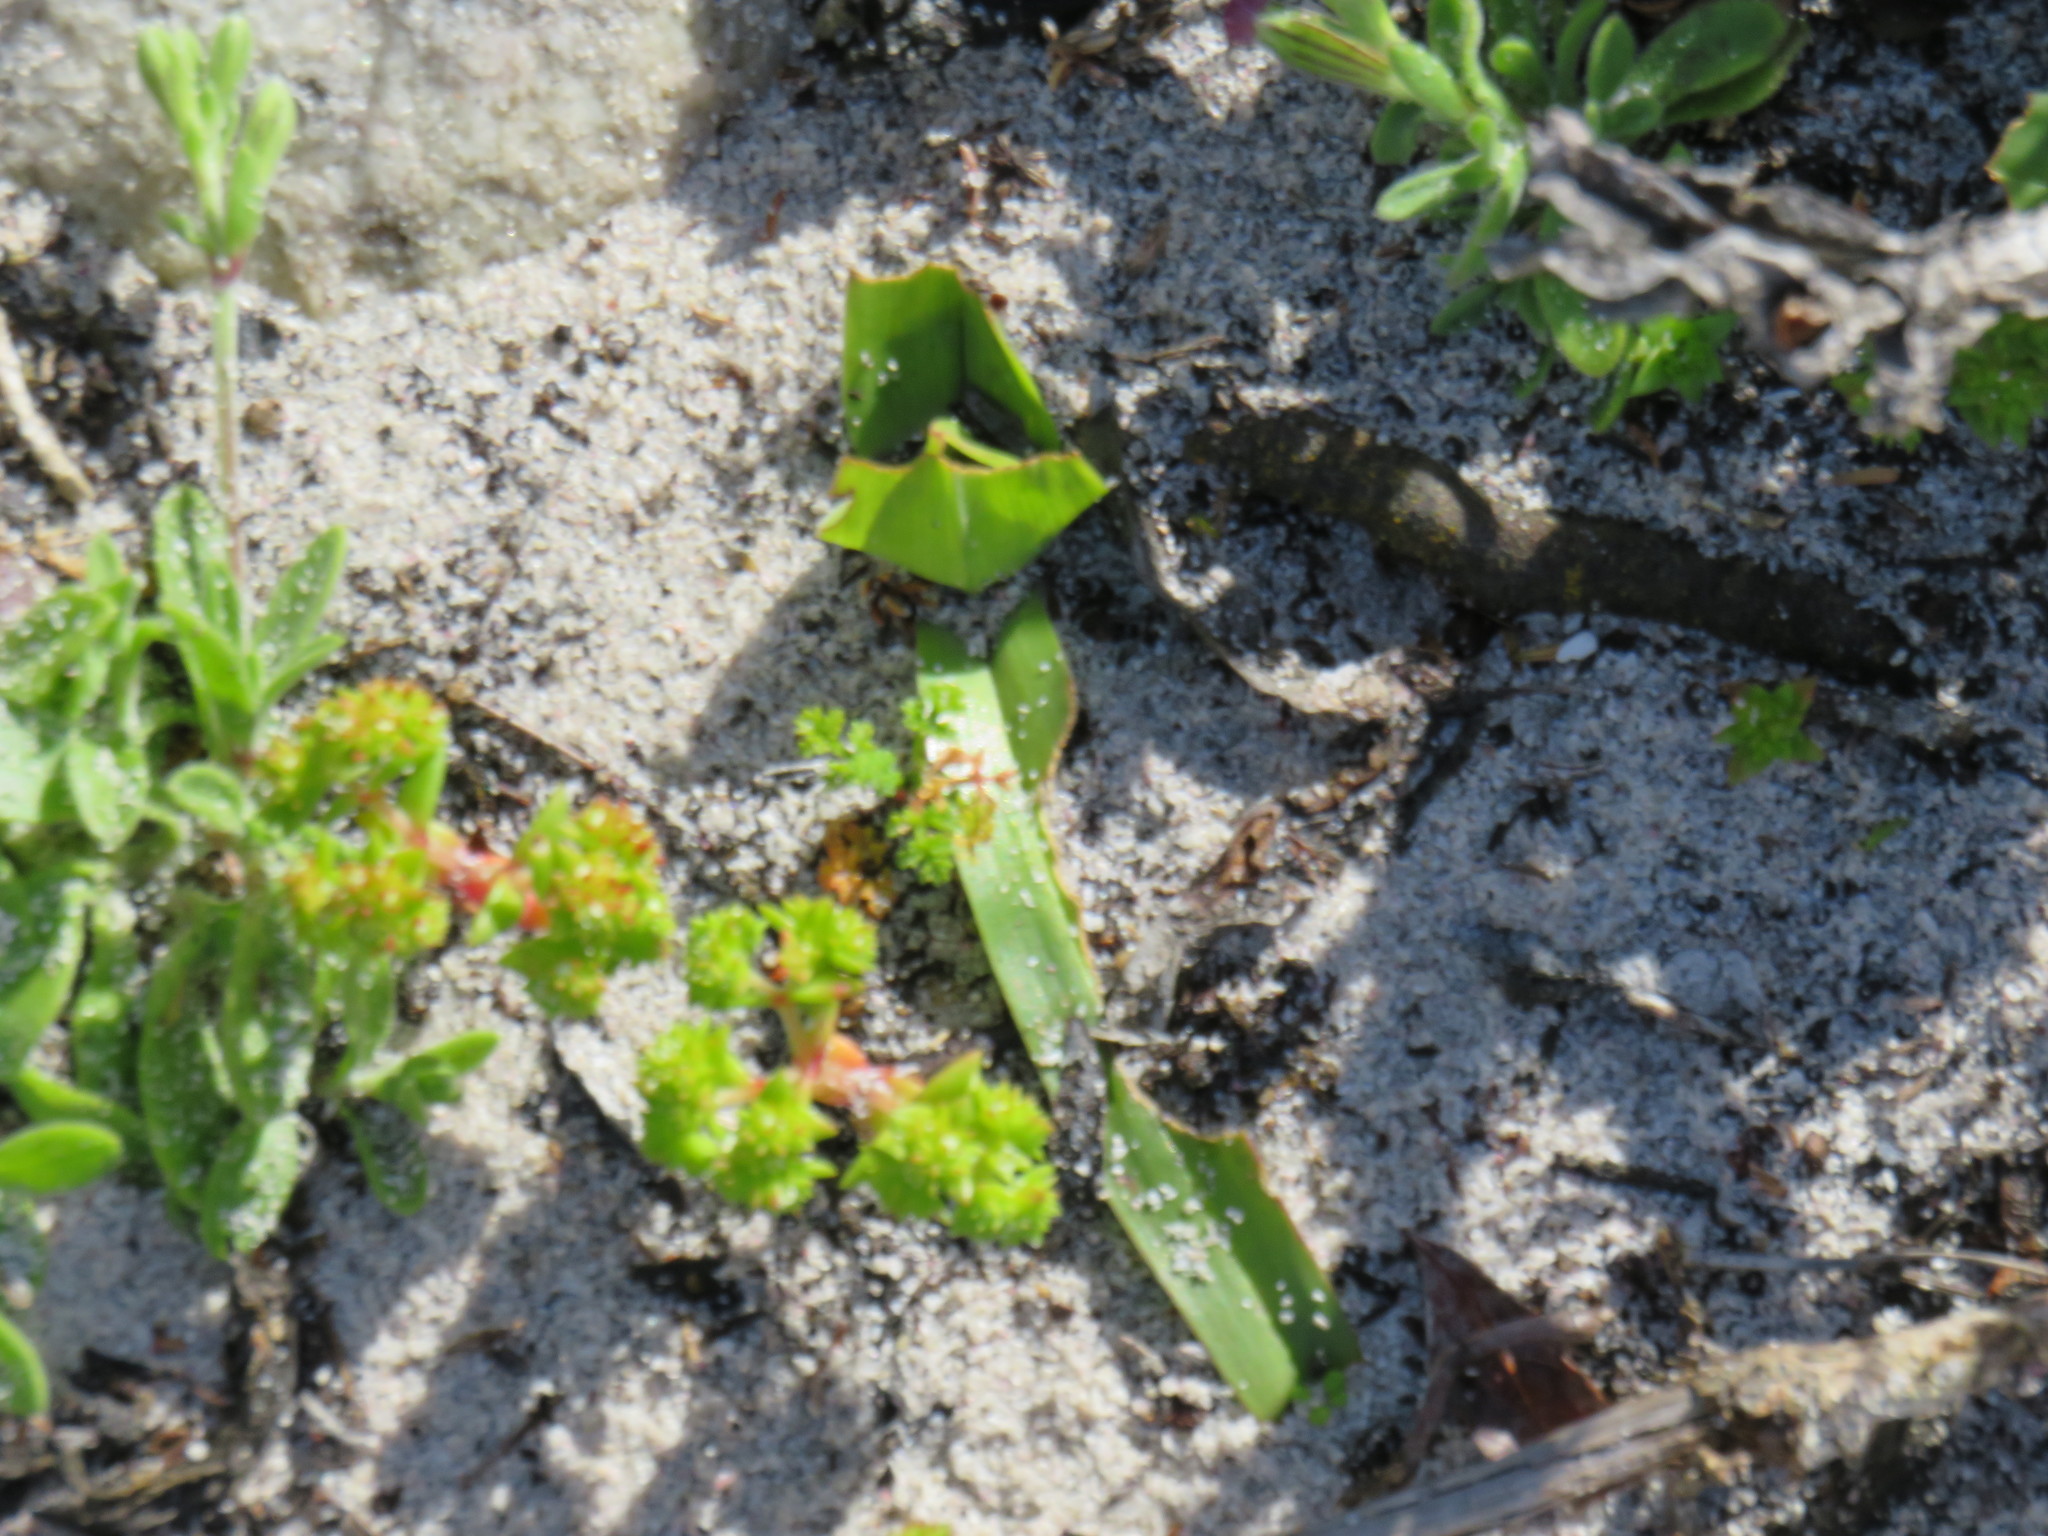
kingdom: Plantae
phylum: Tracheophyta
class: Liliopsida
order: Liliales
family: Colchicaceae
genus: Colchicum
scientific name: Colchicum eucomoides
